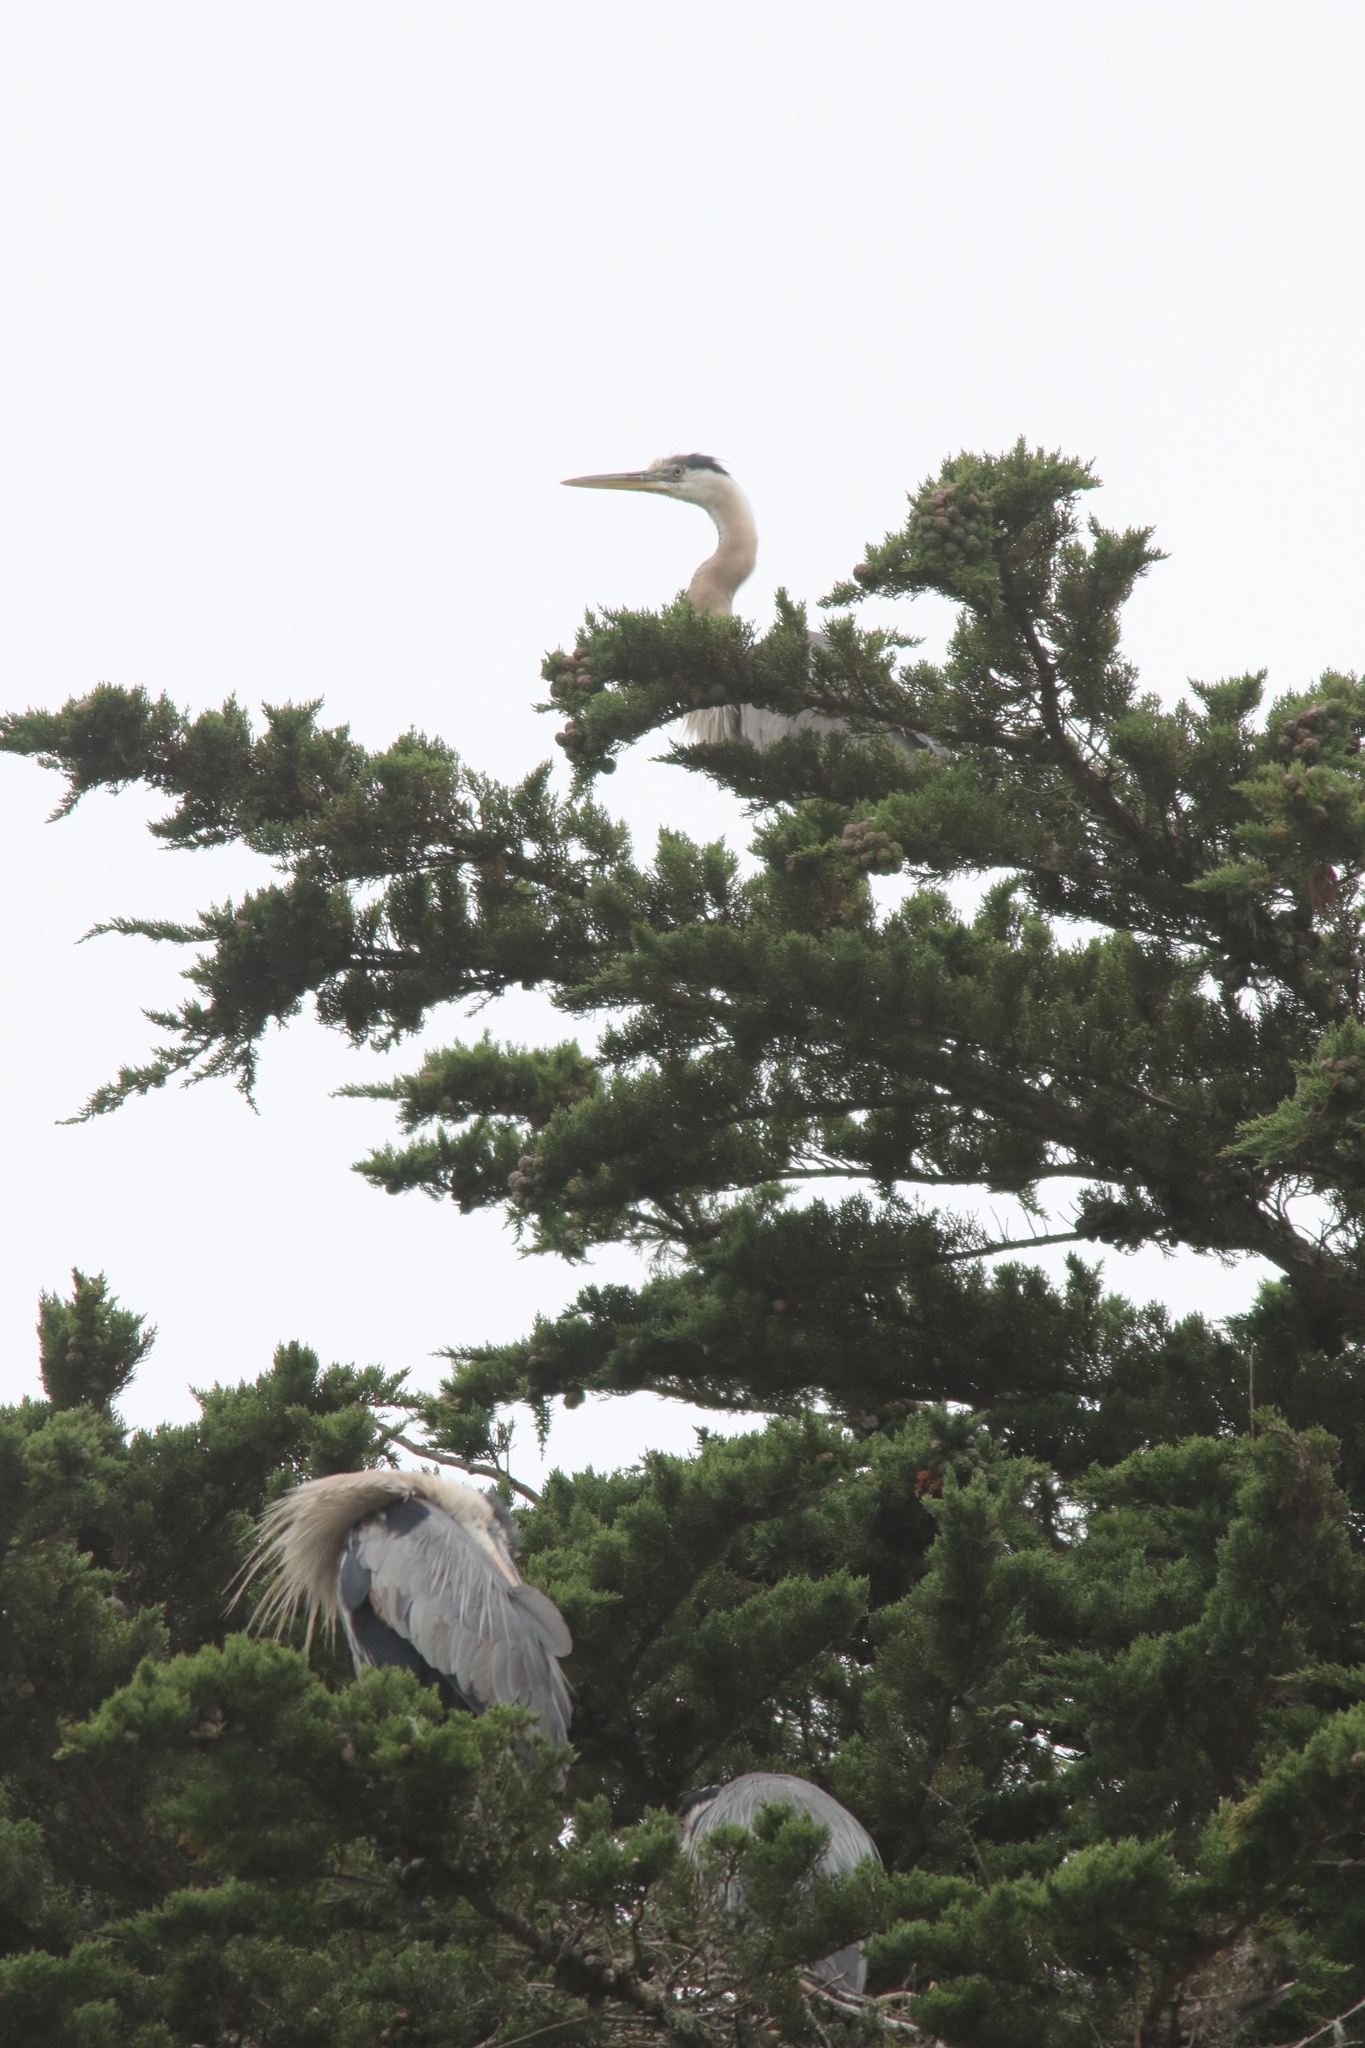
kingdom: Animalia
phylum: Chordata
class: Aves
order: Pelecaniformes
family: Ardeidae
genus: Ardea
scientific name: Ardea herodias
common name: Great blue heron
